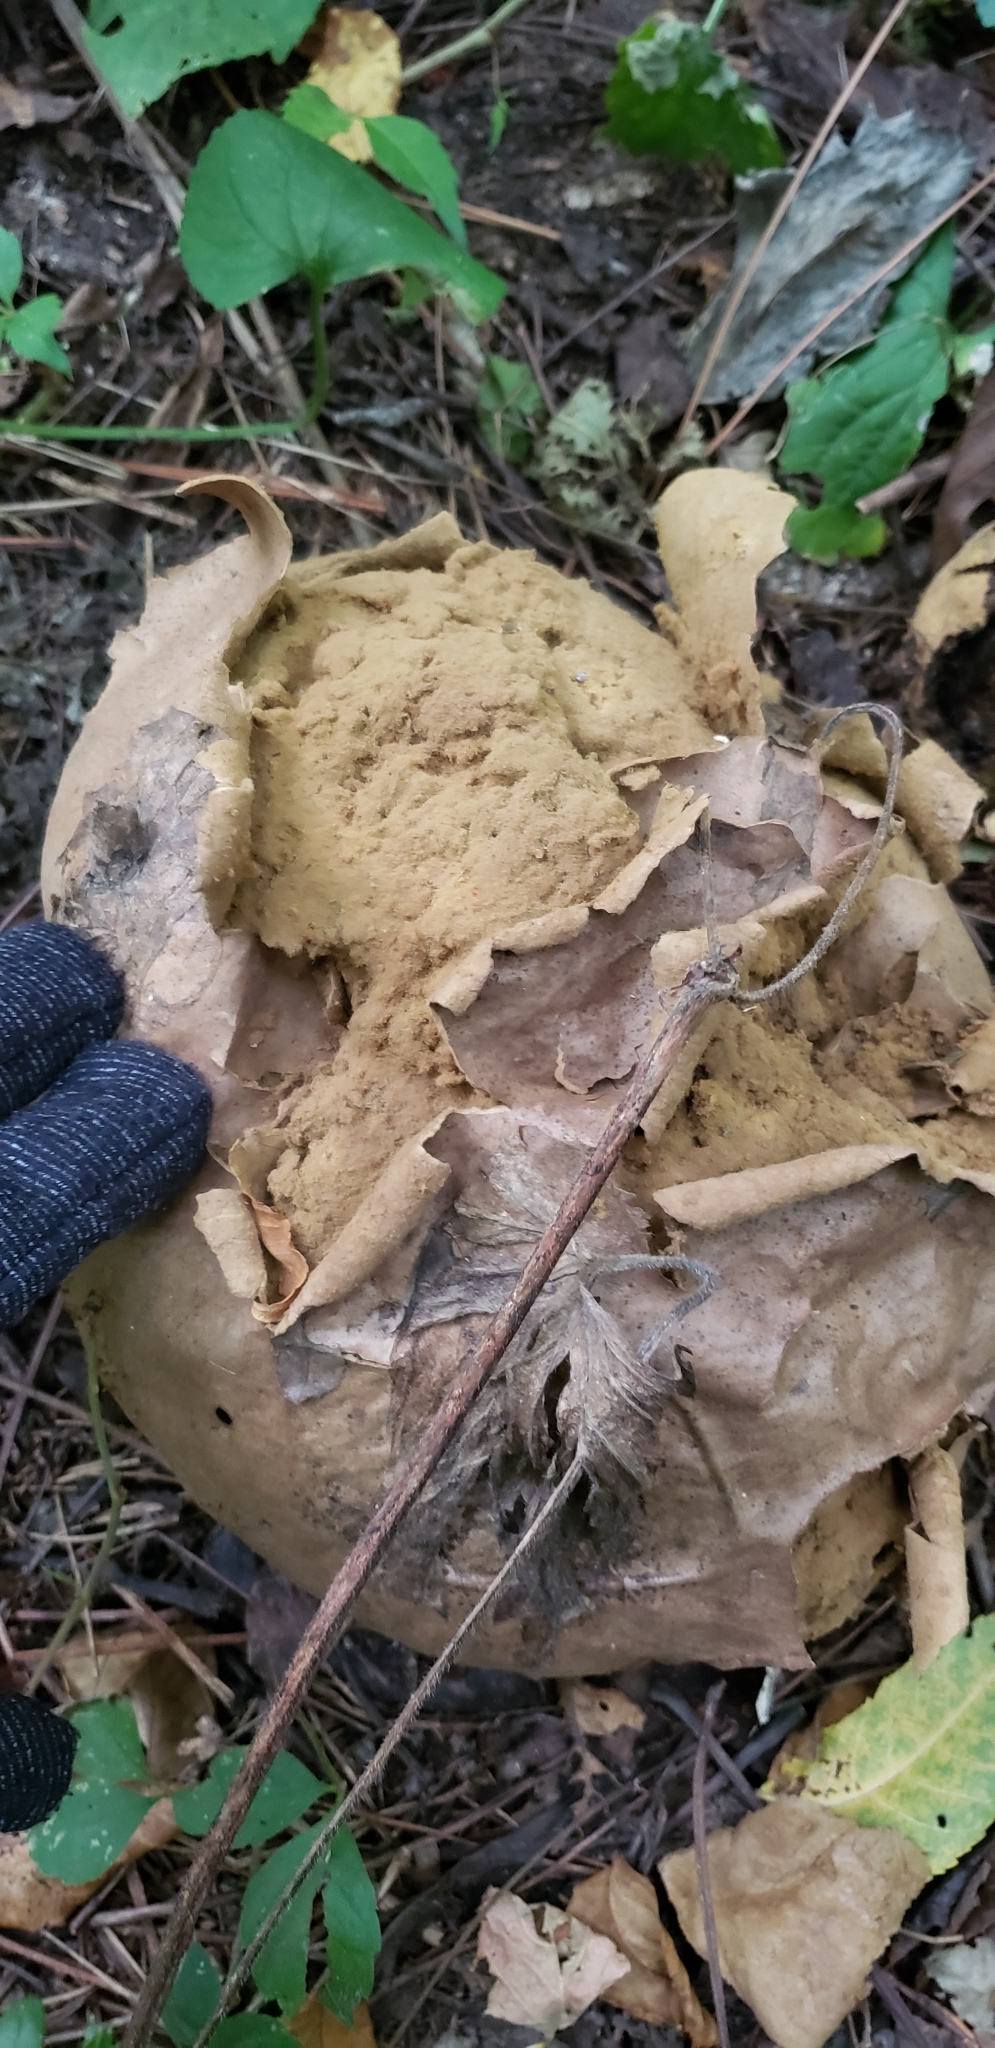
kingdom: Fungi
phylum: Basidiomycota
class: Agaricomycetes
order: Agaricales
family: Lycoperdaceae
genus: Calvatia
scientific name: Calvatia gigantea
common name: Giant puffball
